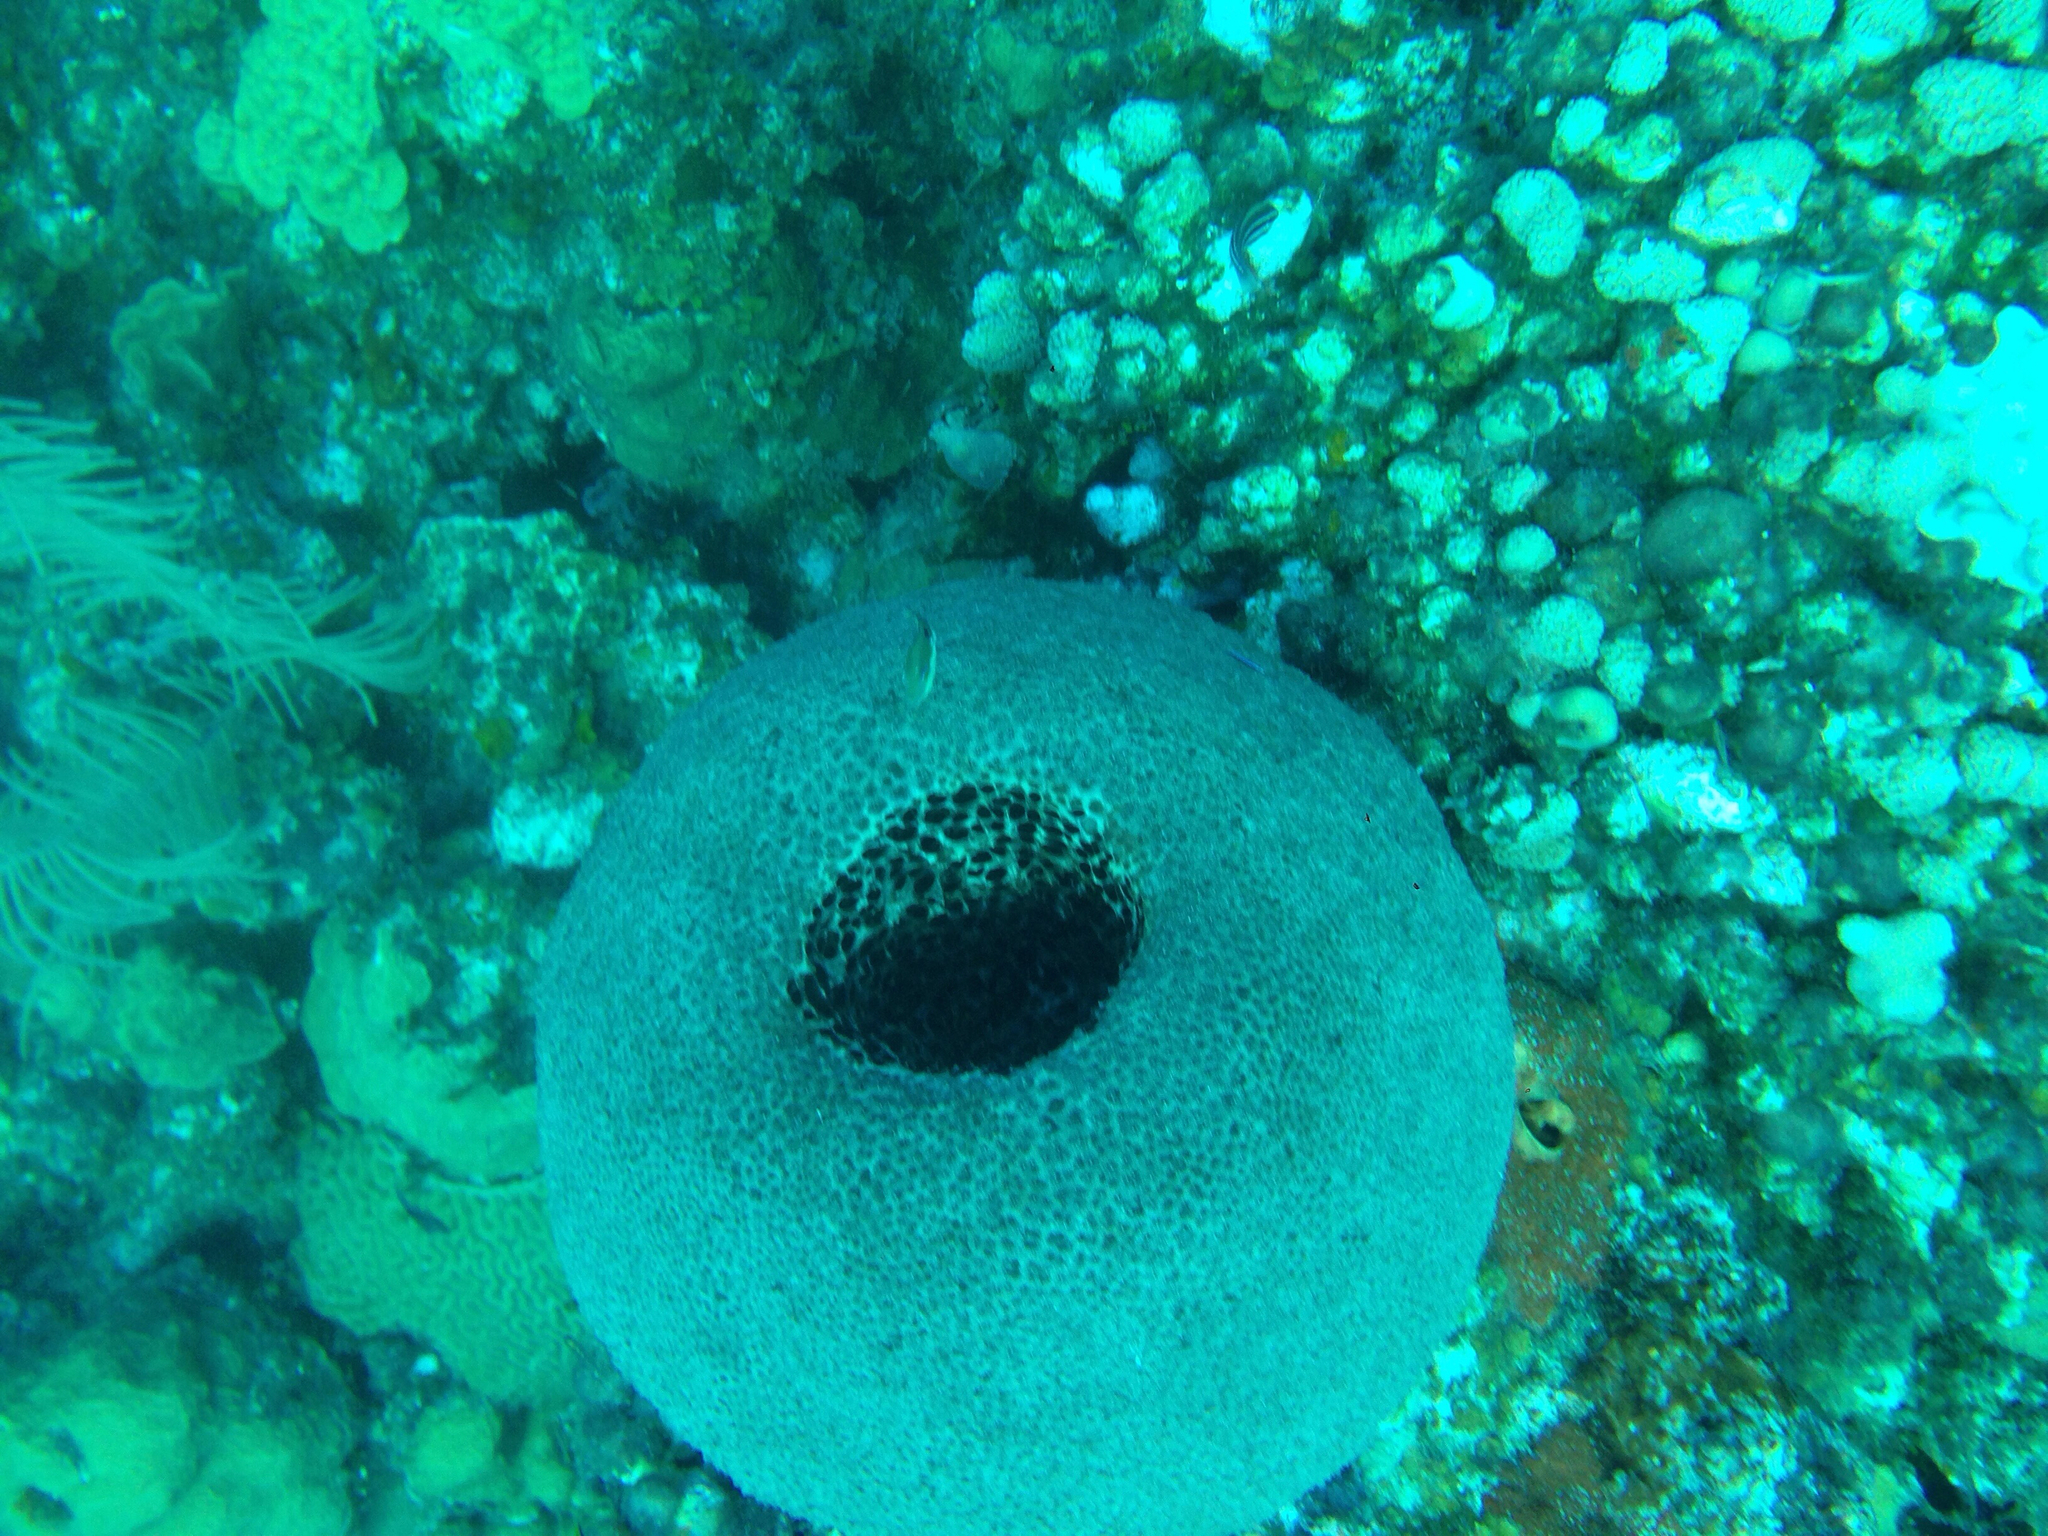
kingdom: Animalia
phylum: Porifera
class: Demospongiae
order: Dictyoceratida
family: Irciniidae
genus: Ircinia
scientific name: Ircinia strobilina
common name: Cake sponge
